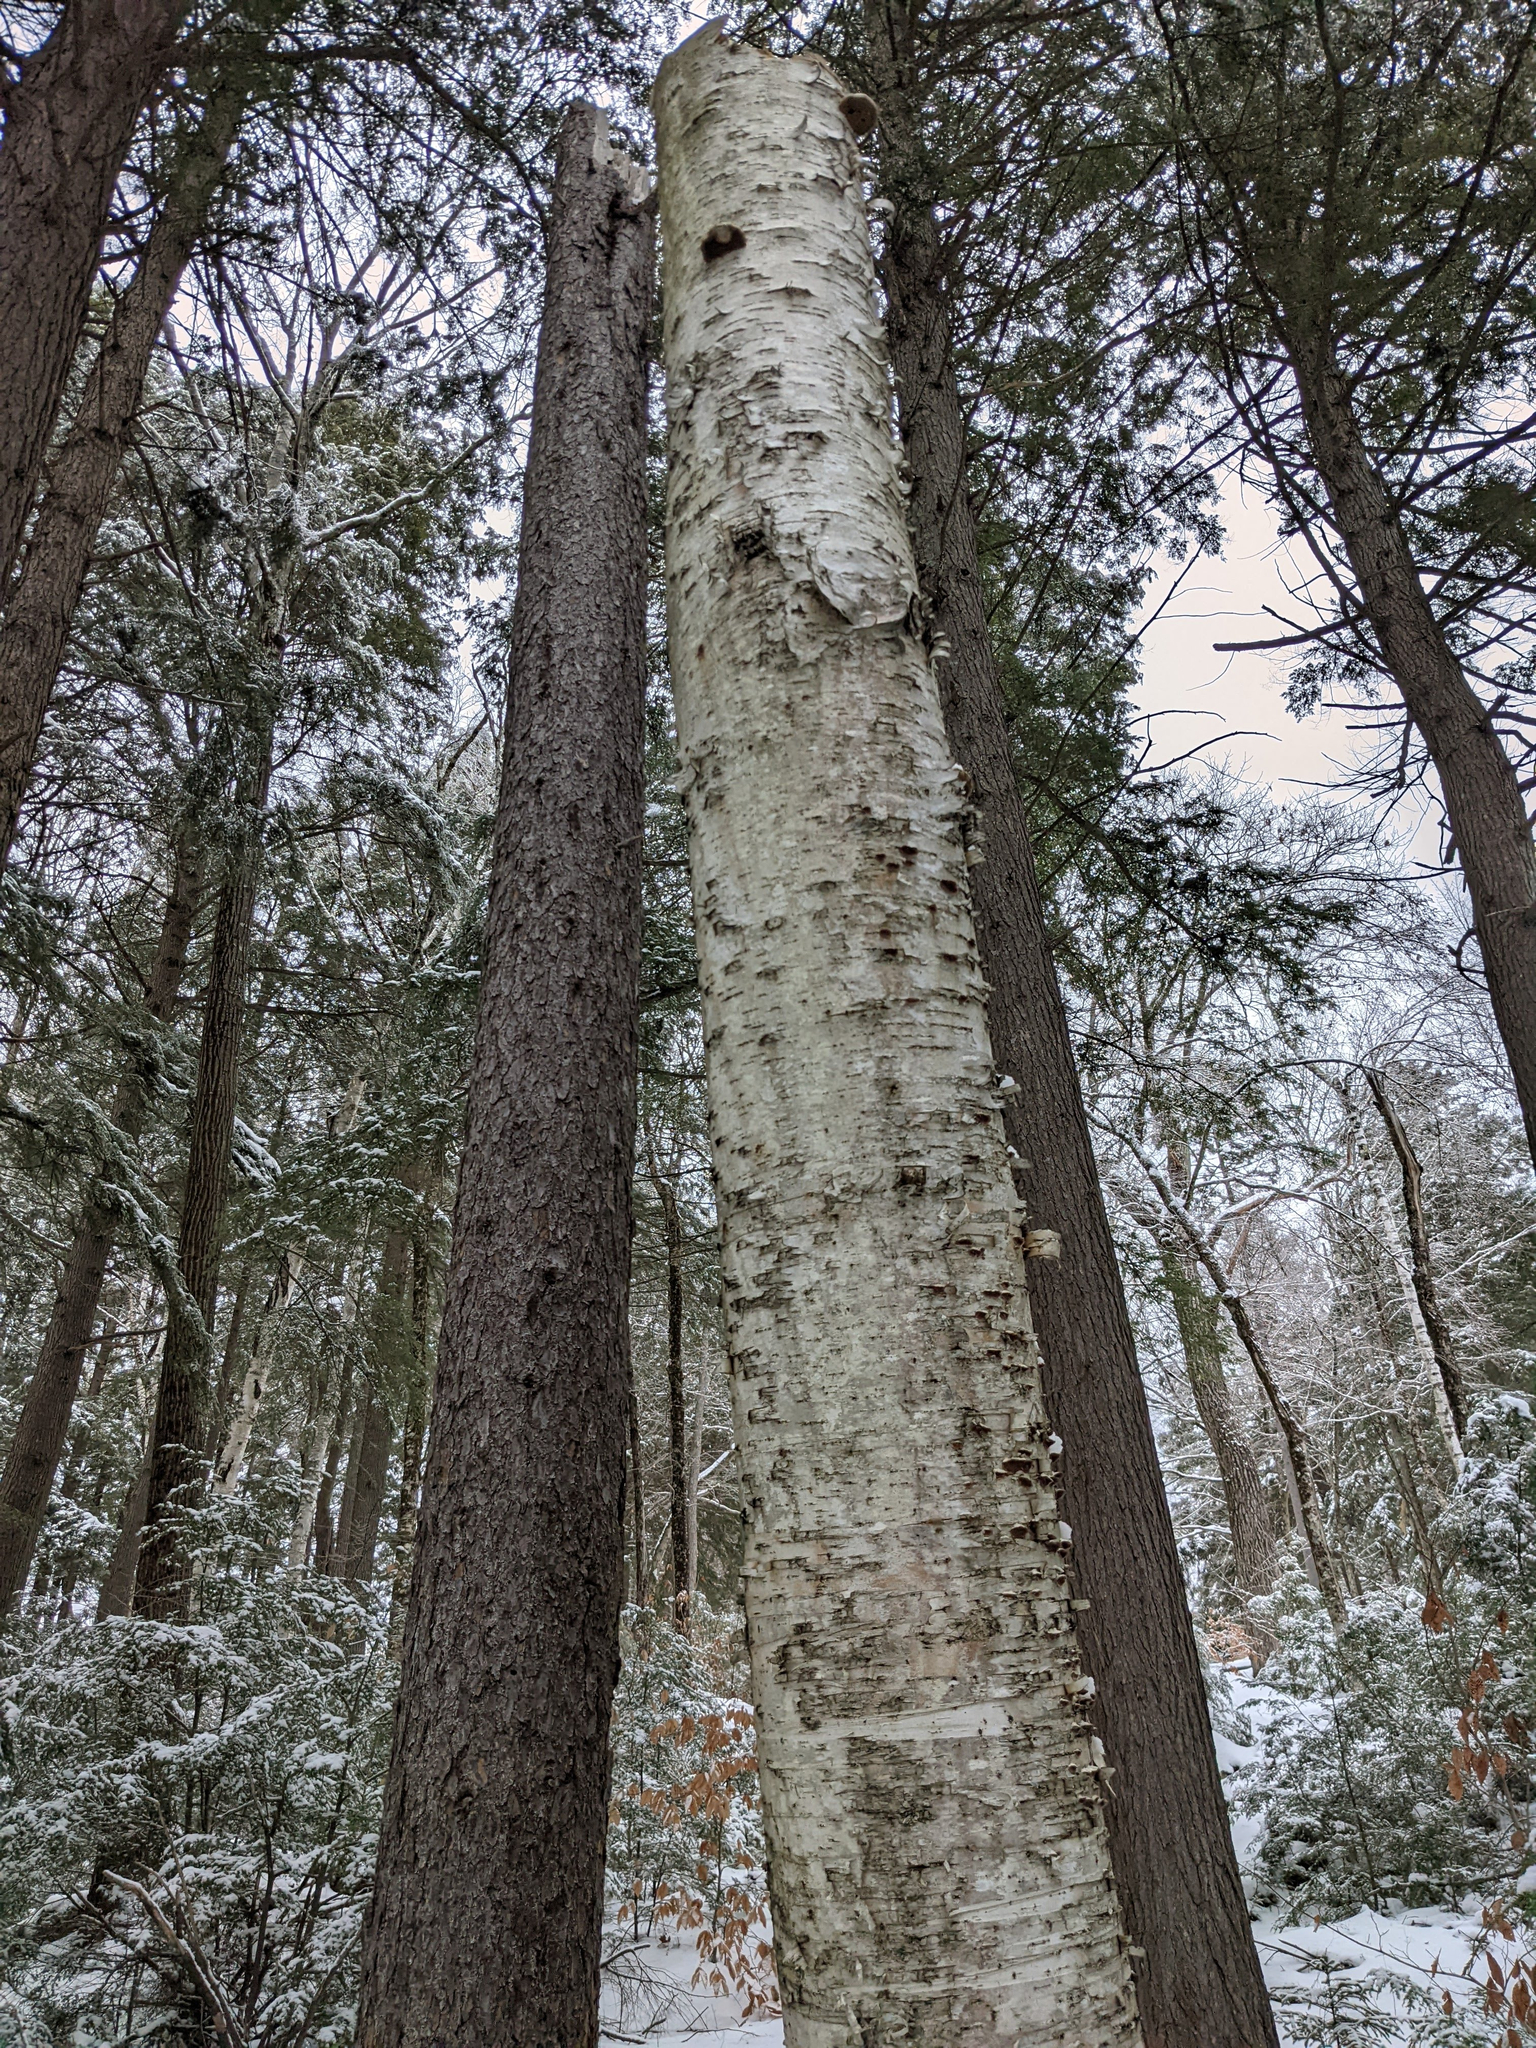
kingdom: Plantae
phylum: Tracheophyta
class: Magnoliopsida
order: Fagales
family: Betulaceae
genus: Betula
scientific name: Betula papyrifera
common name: Paper birch
